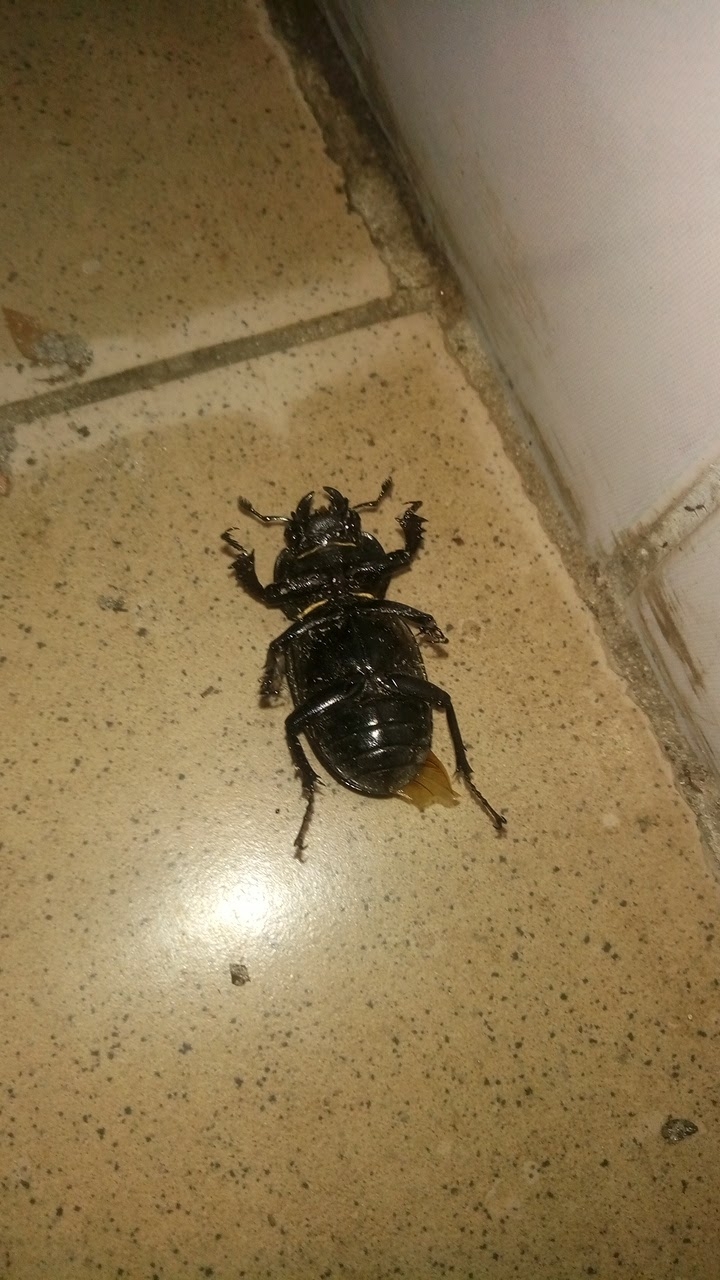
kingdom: Animalia
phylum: Arthropoda
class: Insecta
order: Coleoptera
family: Lucanidae
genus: Lucanus
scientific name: Lucanus cervus
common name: Stag beetle
